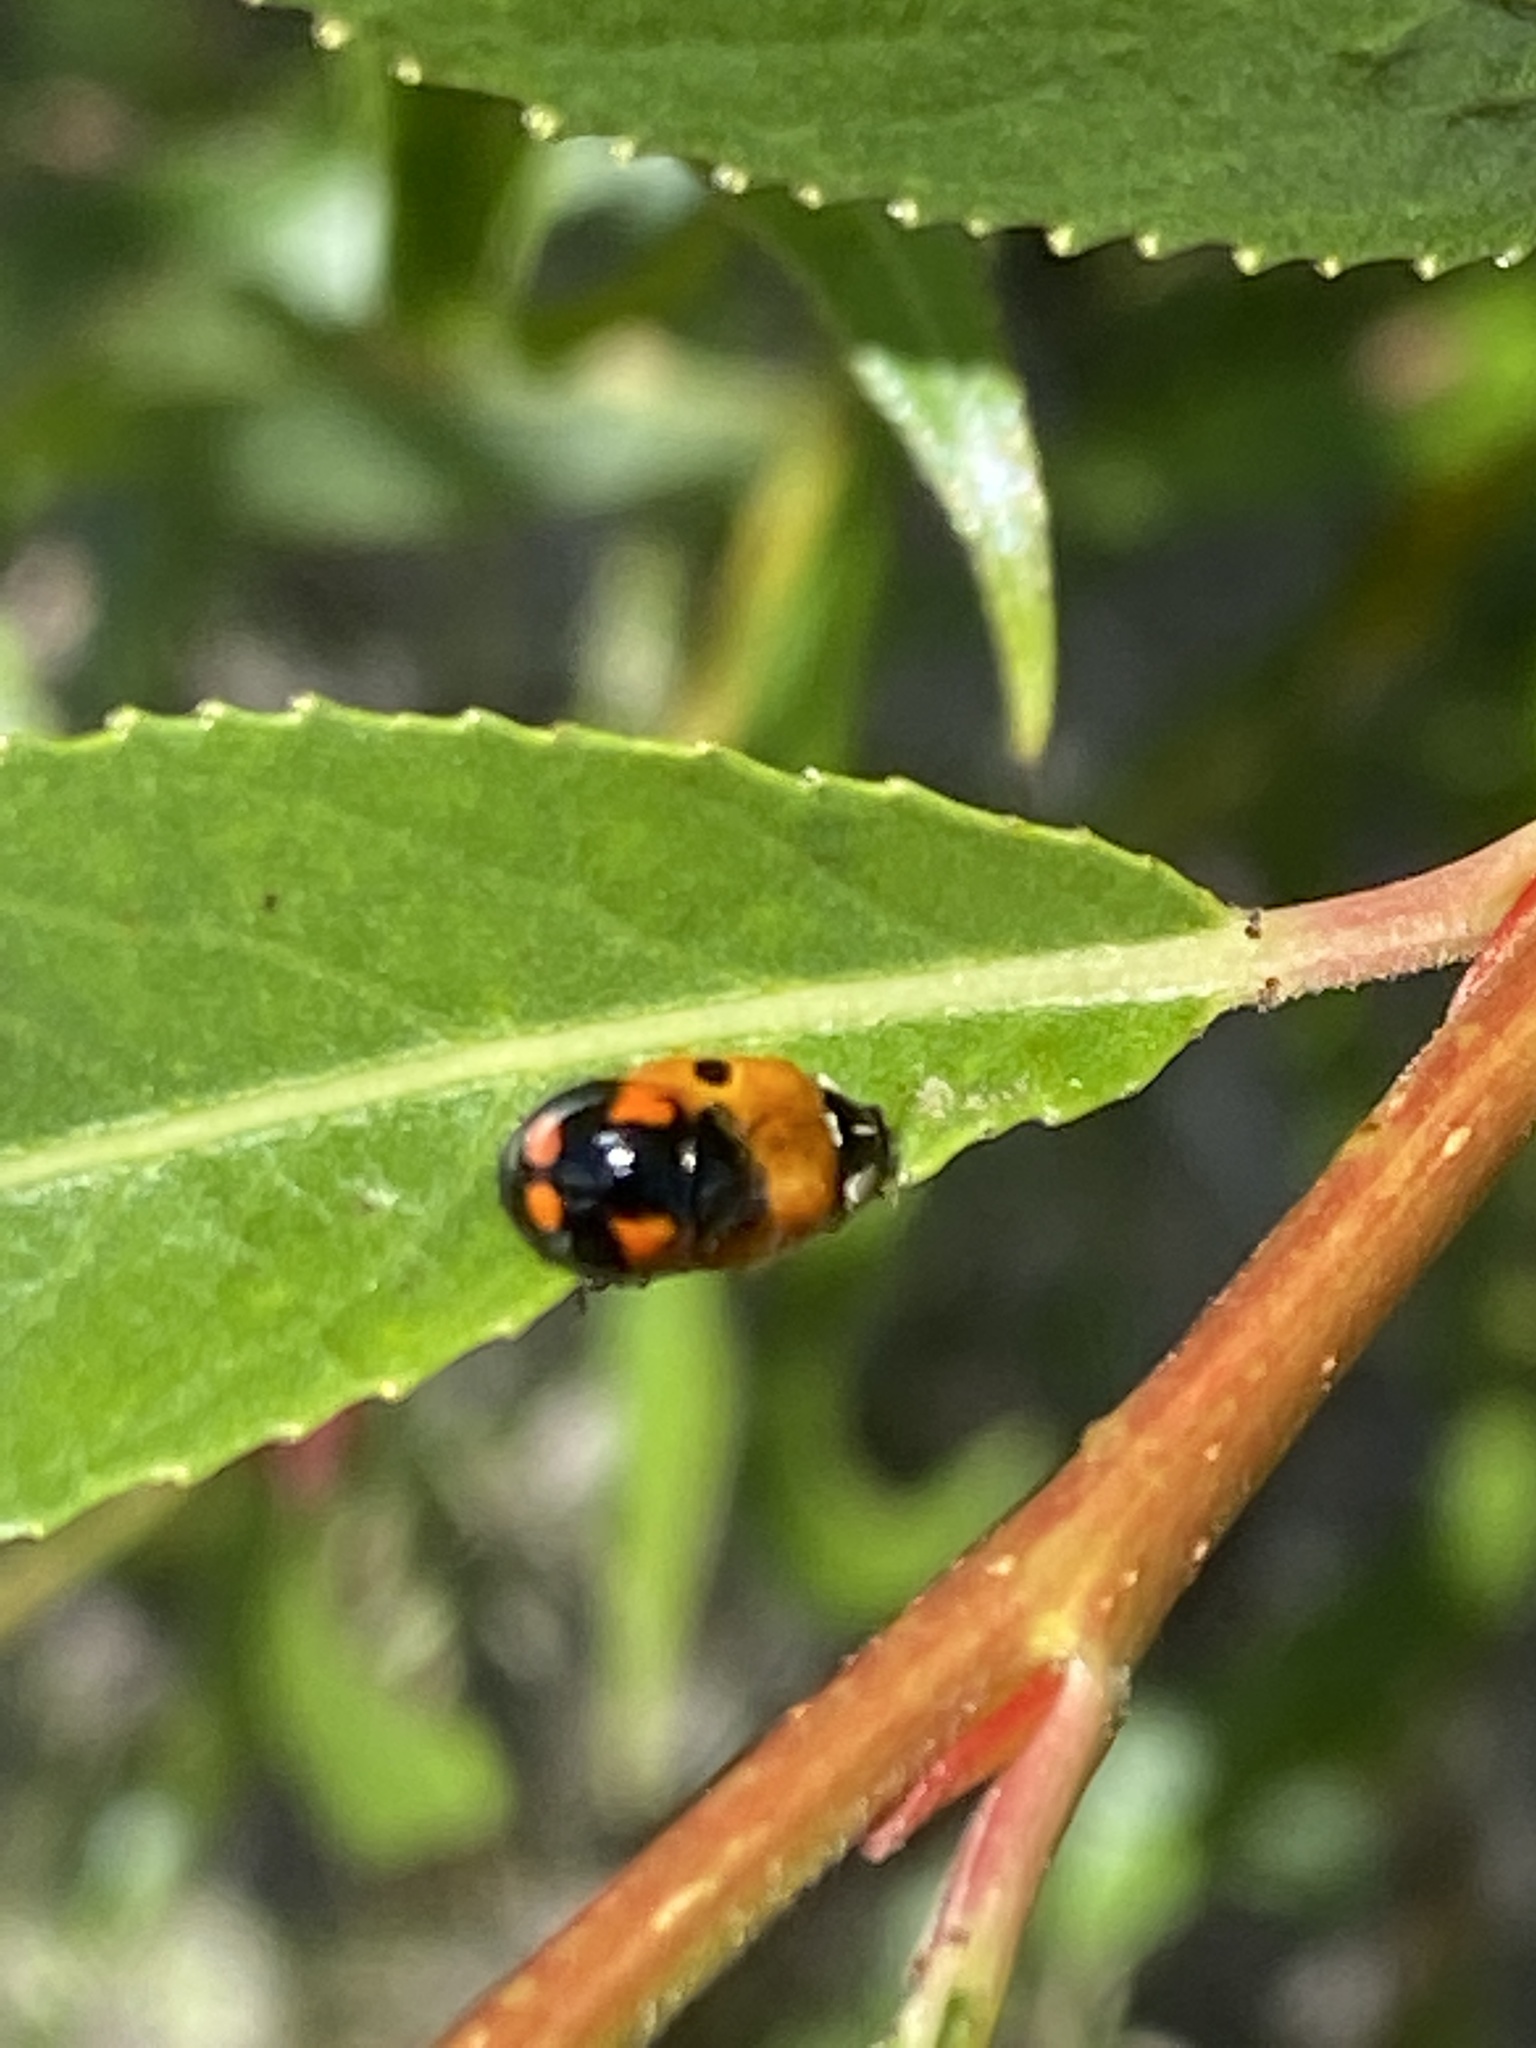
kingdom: Animalia
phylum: Arthropoda
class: Insecta
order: Coleoptera
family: Coccinellidae
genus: Adalia
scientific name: Adalia bipunctata
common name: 2-spot ladybird
